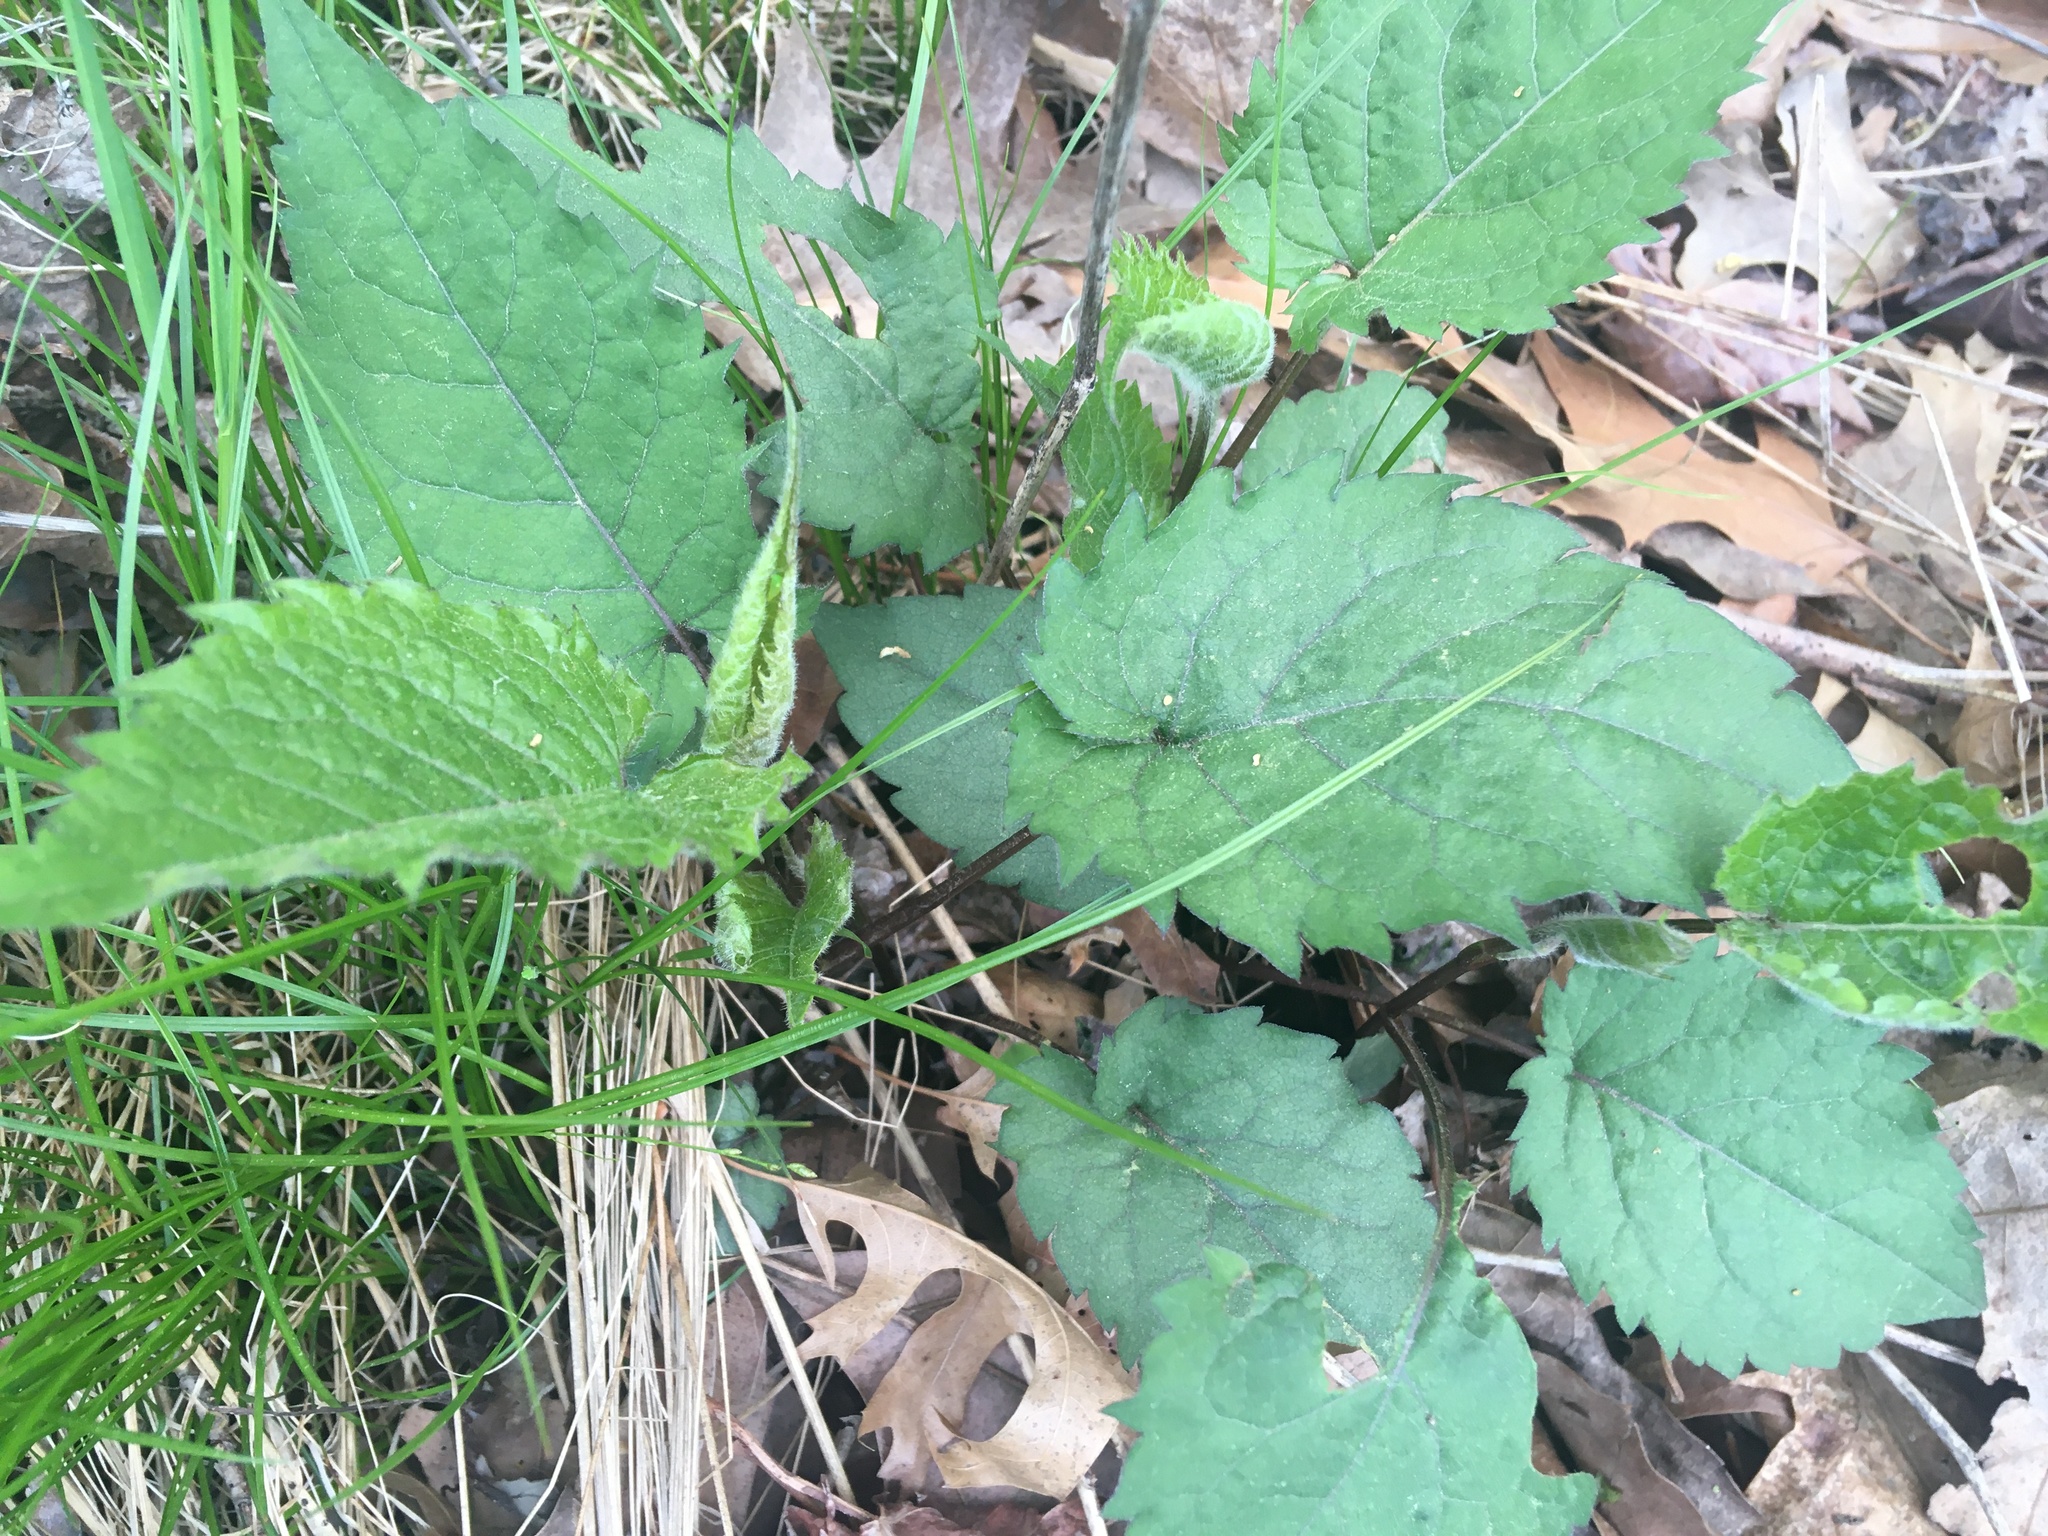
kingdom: Plantae
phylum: Tracheophyta
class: Magnoliopsida
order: Asterales
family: Asteraceae
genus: Eurybia
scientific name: Eurybia divaricata
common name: White wood aster
